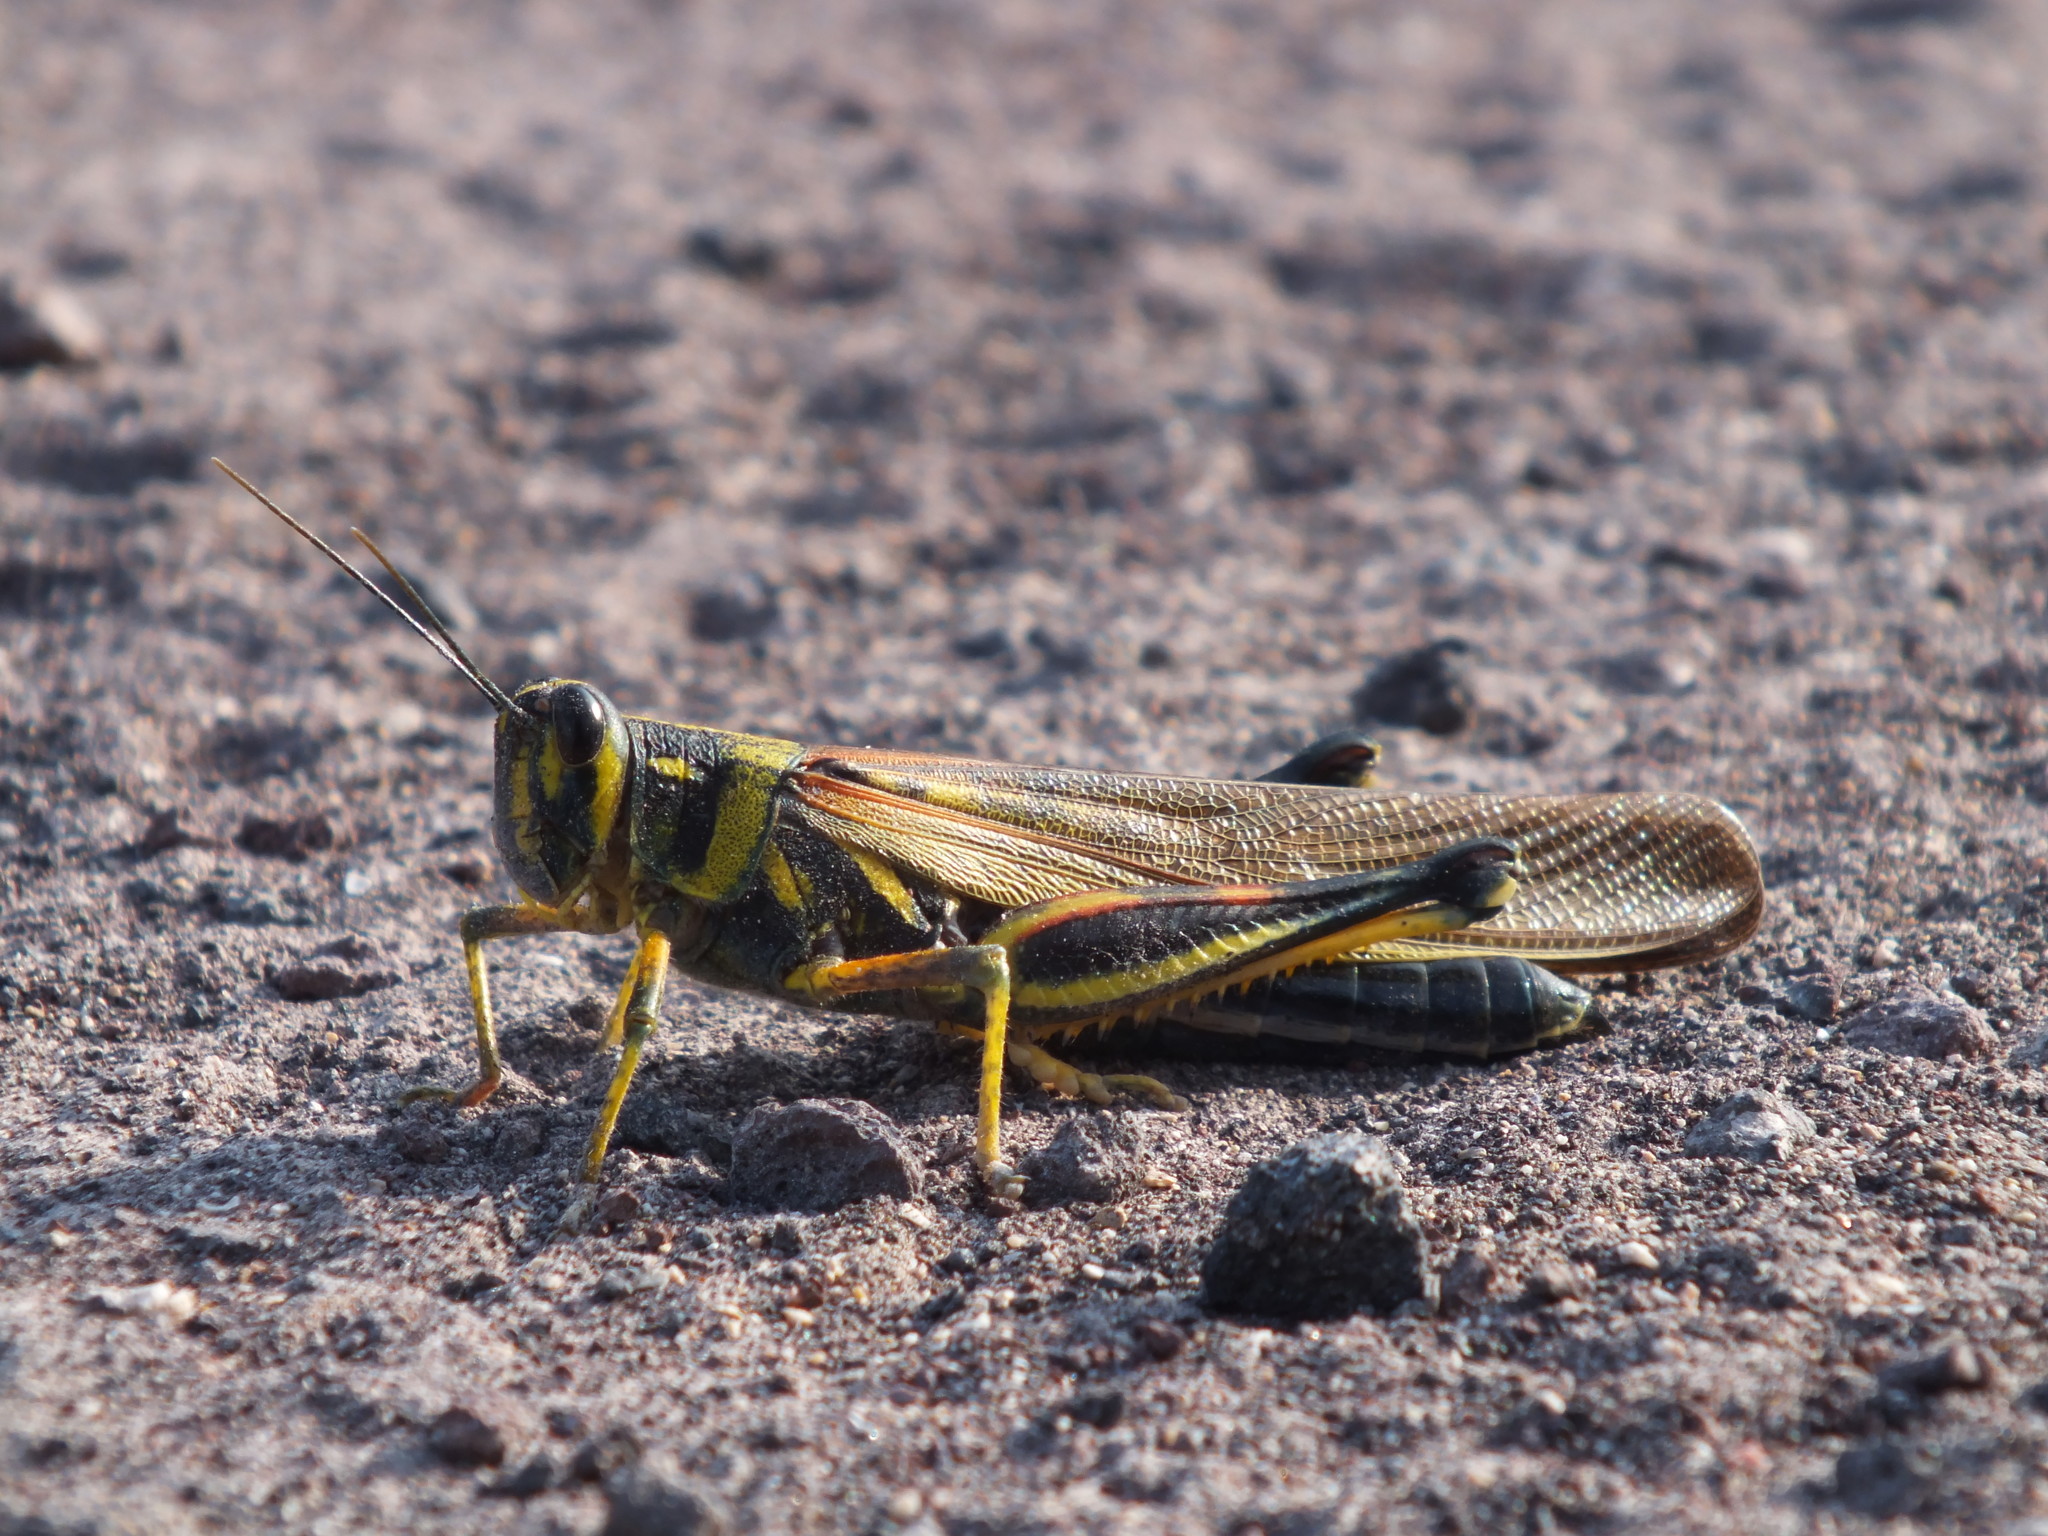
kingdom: Animalia
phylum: Arthropoda
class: Insecta
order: Orthoptera
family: Acrididae
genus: Schistocerca
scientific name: Schistocerca melanocera
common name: Large painted locust
